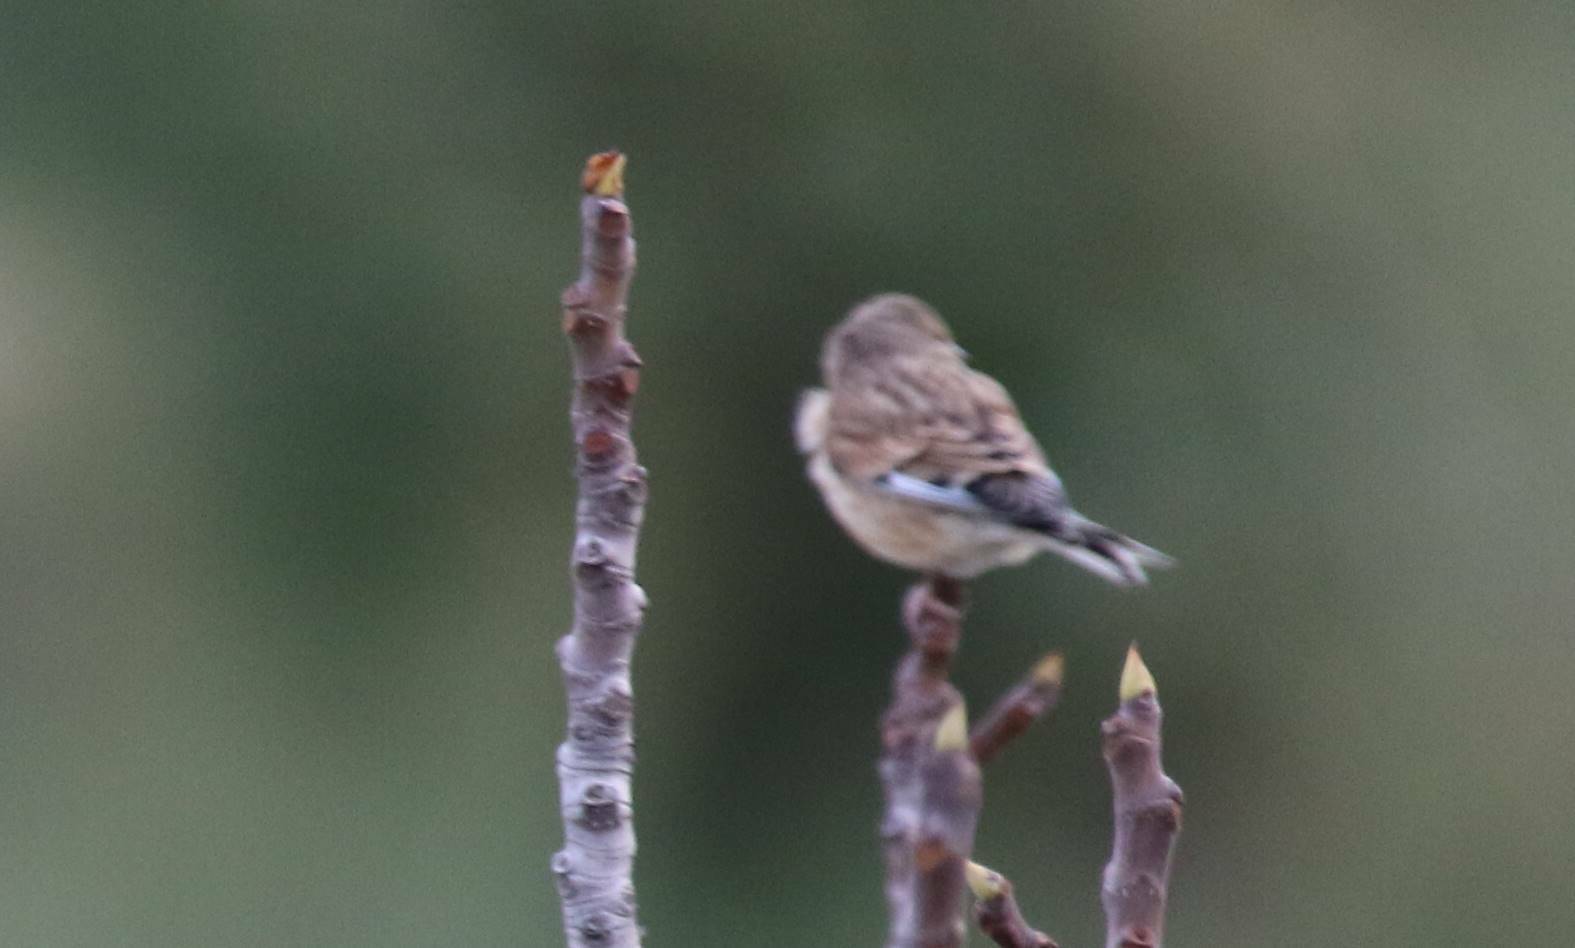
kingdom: Animalia
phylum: Chordata
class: Aves
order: Passeriformes
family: Fringillidae
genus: Linaria
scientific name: Linaria cannabina
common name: Common linnet
